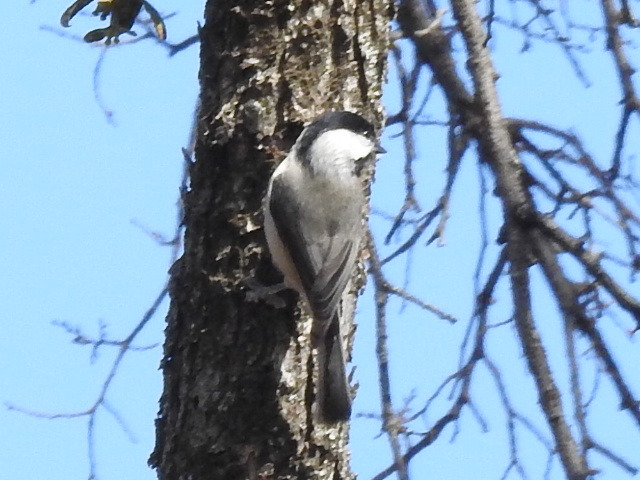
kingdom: Animalia
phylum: Chordata
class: Aves
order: Passeriformes
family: Paridae
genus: Poecile
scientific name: Poecile carolinensis
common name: Carolina chickadee
